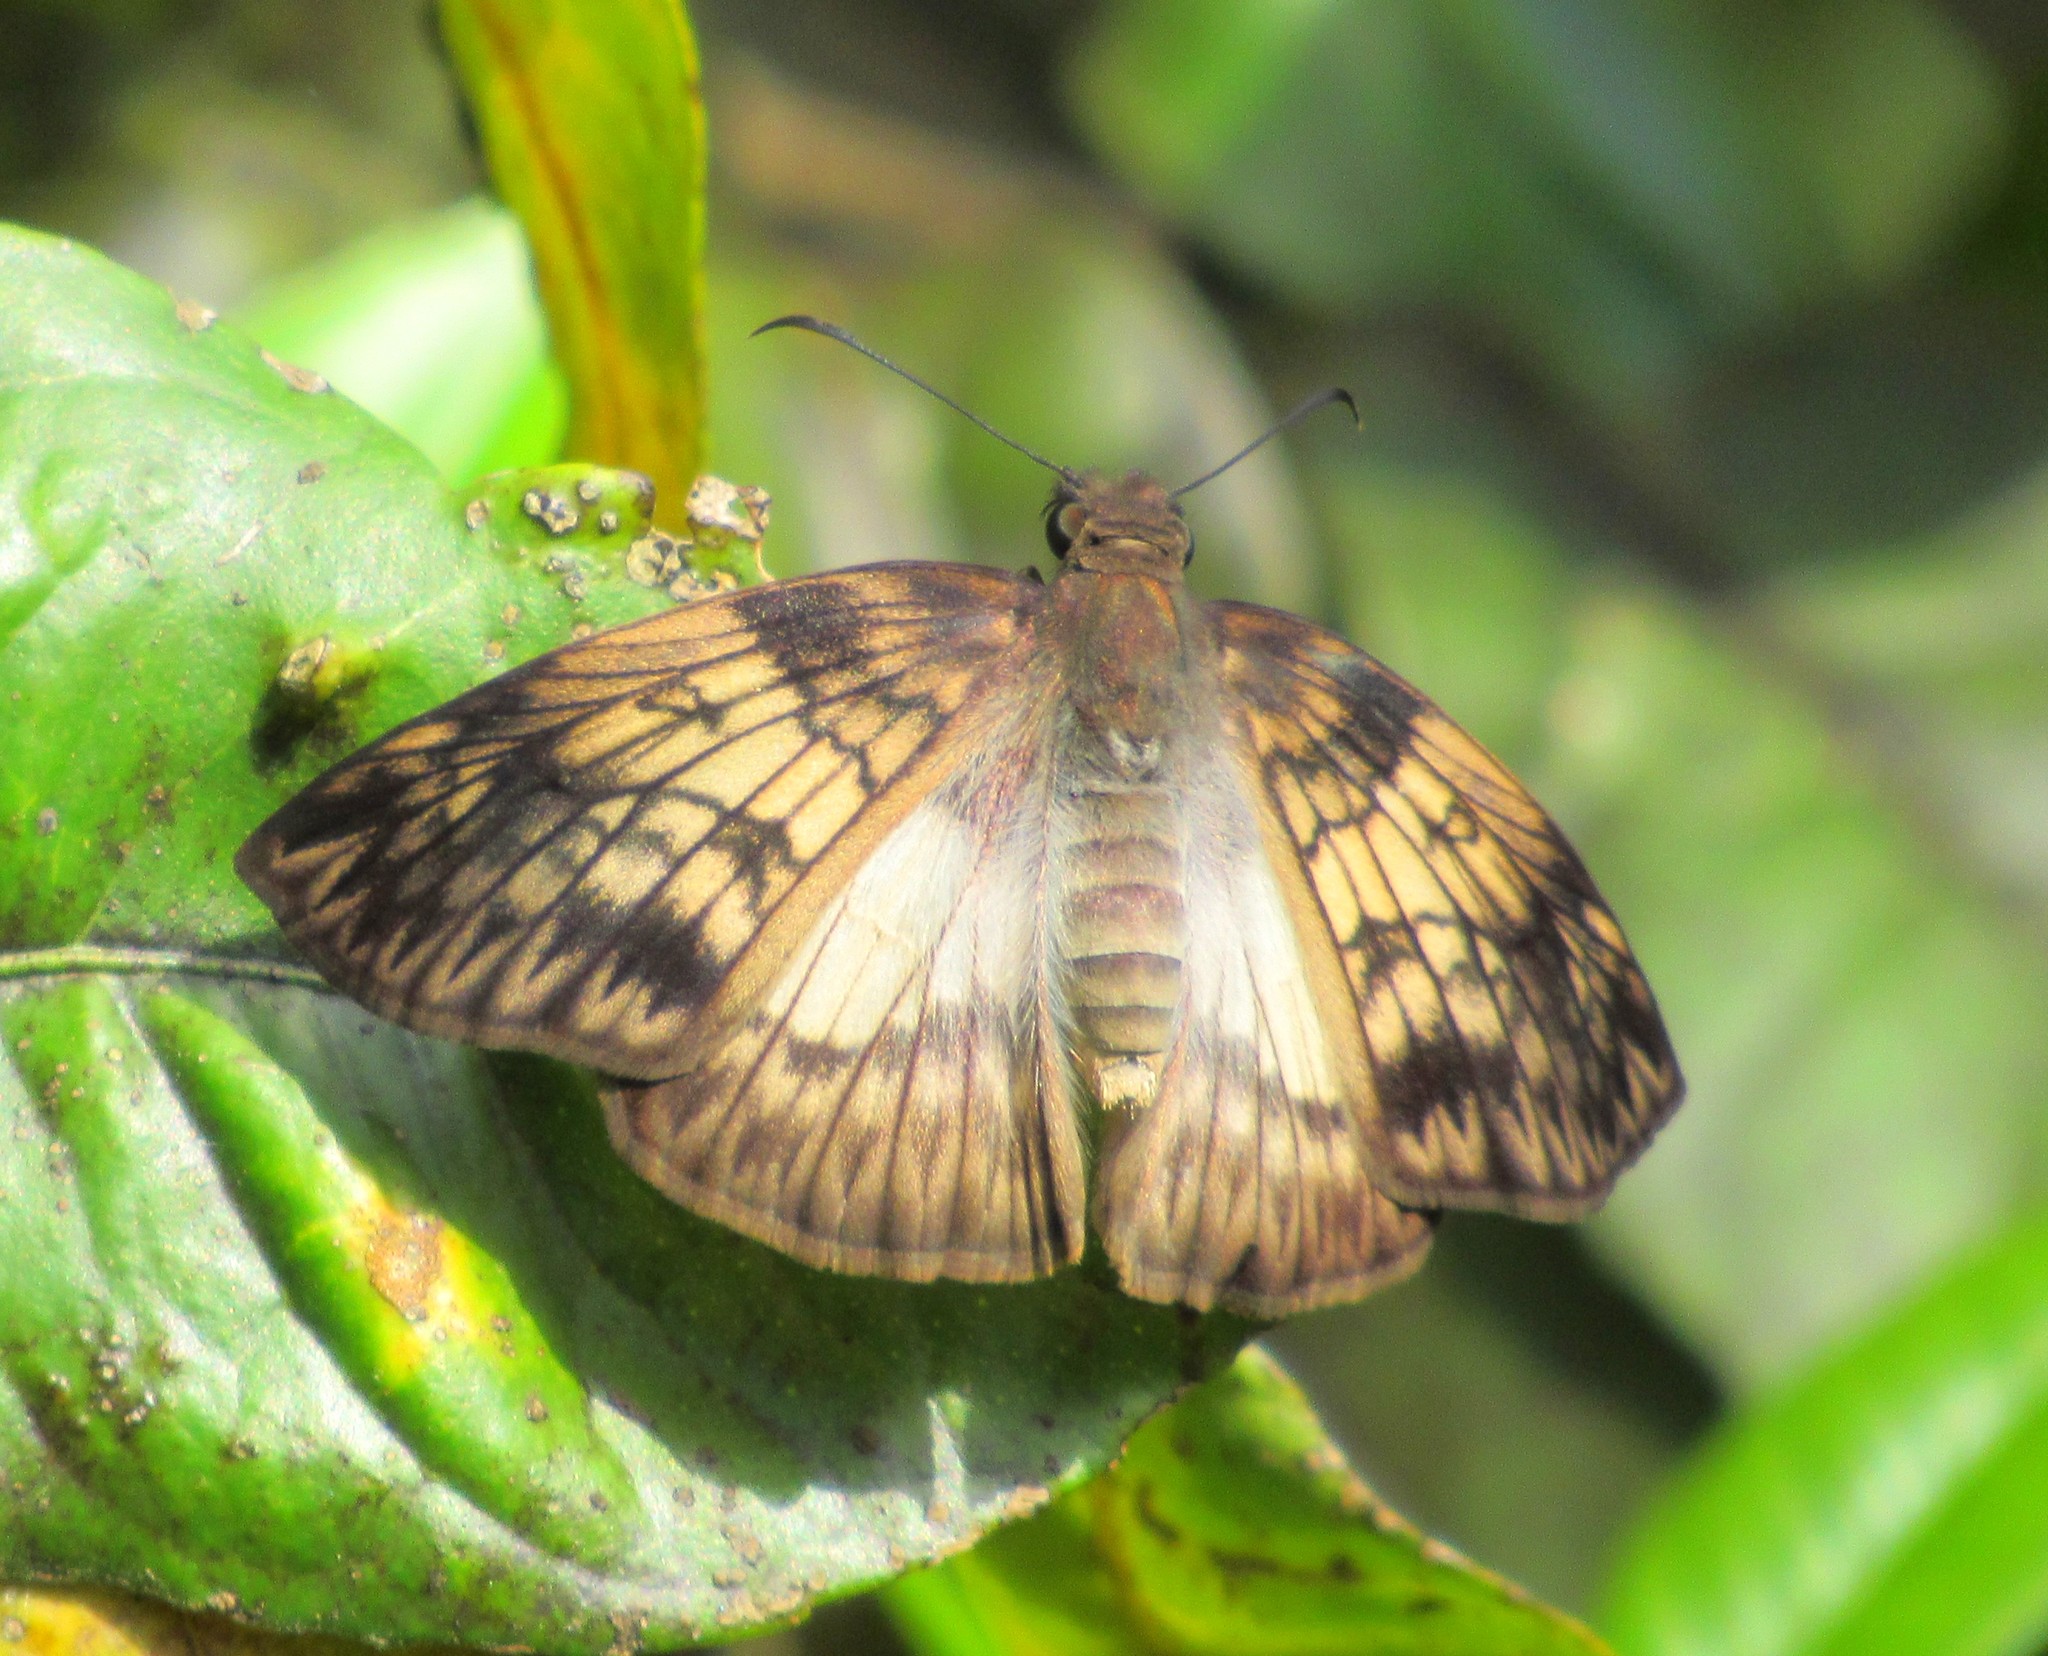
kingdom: Animalia
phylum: Arthropoda
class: Insecta
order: Lepidoptera
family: Hesperiidae
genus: Mylon
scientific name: Mylon maimon
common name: Common mylon
